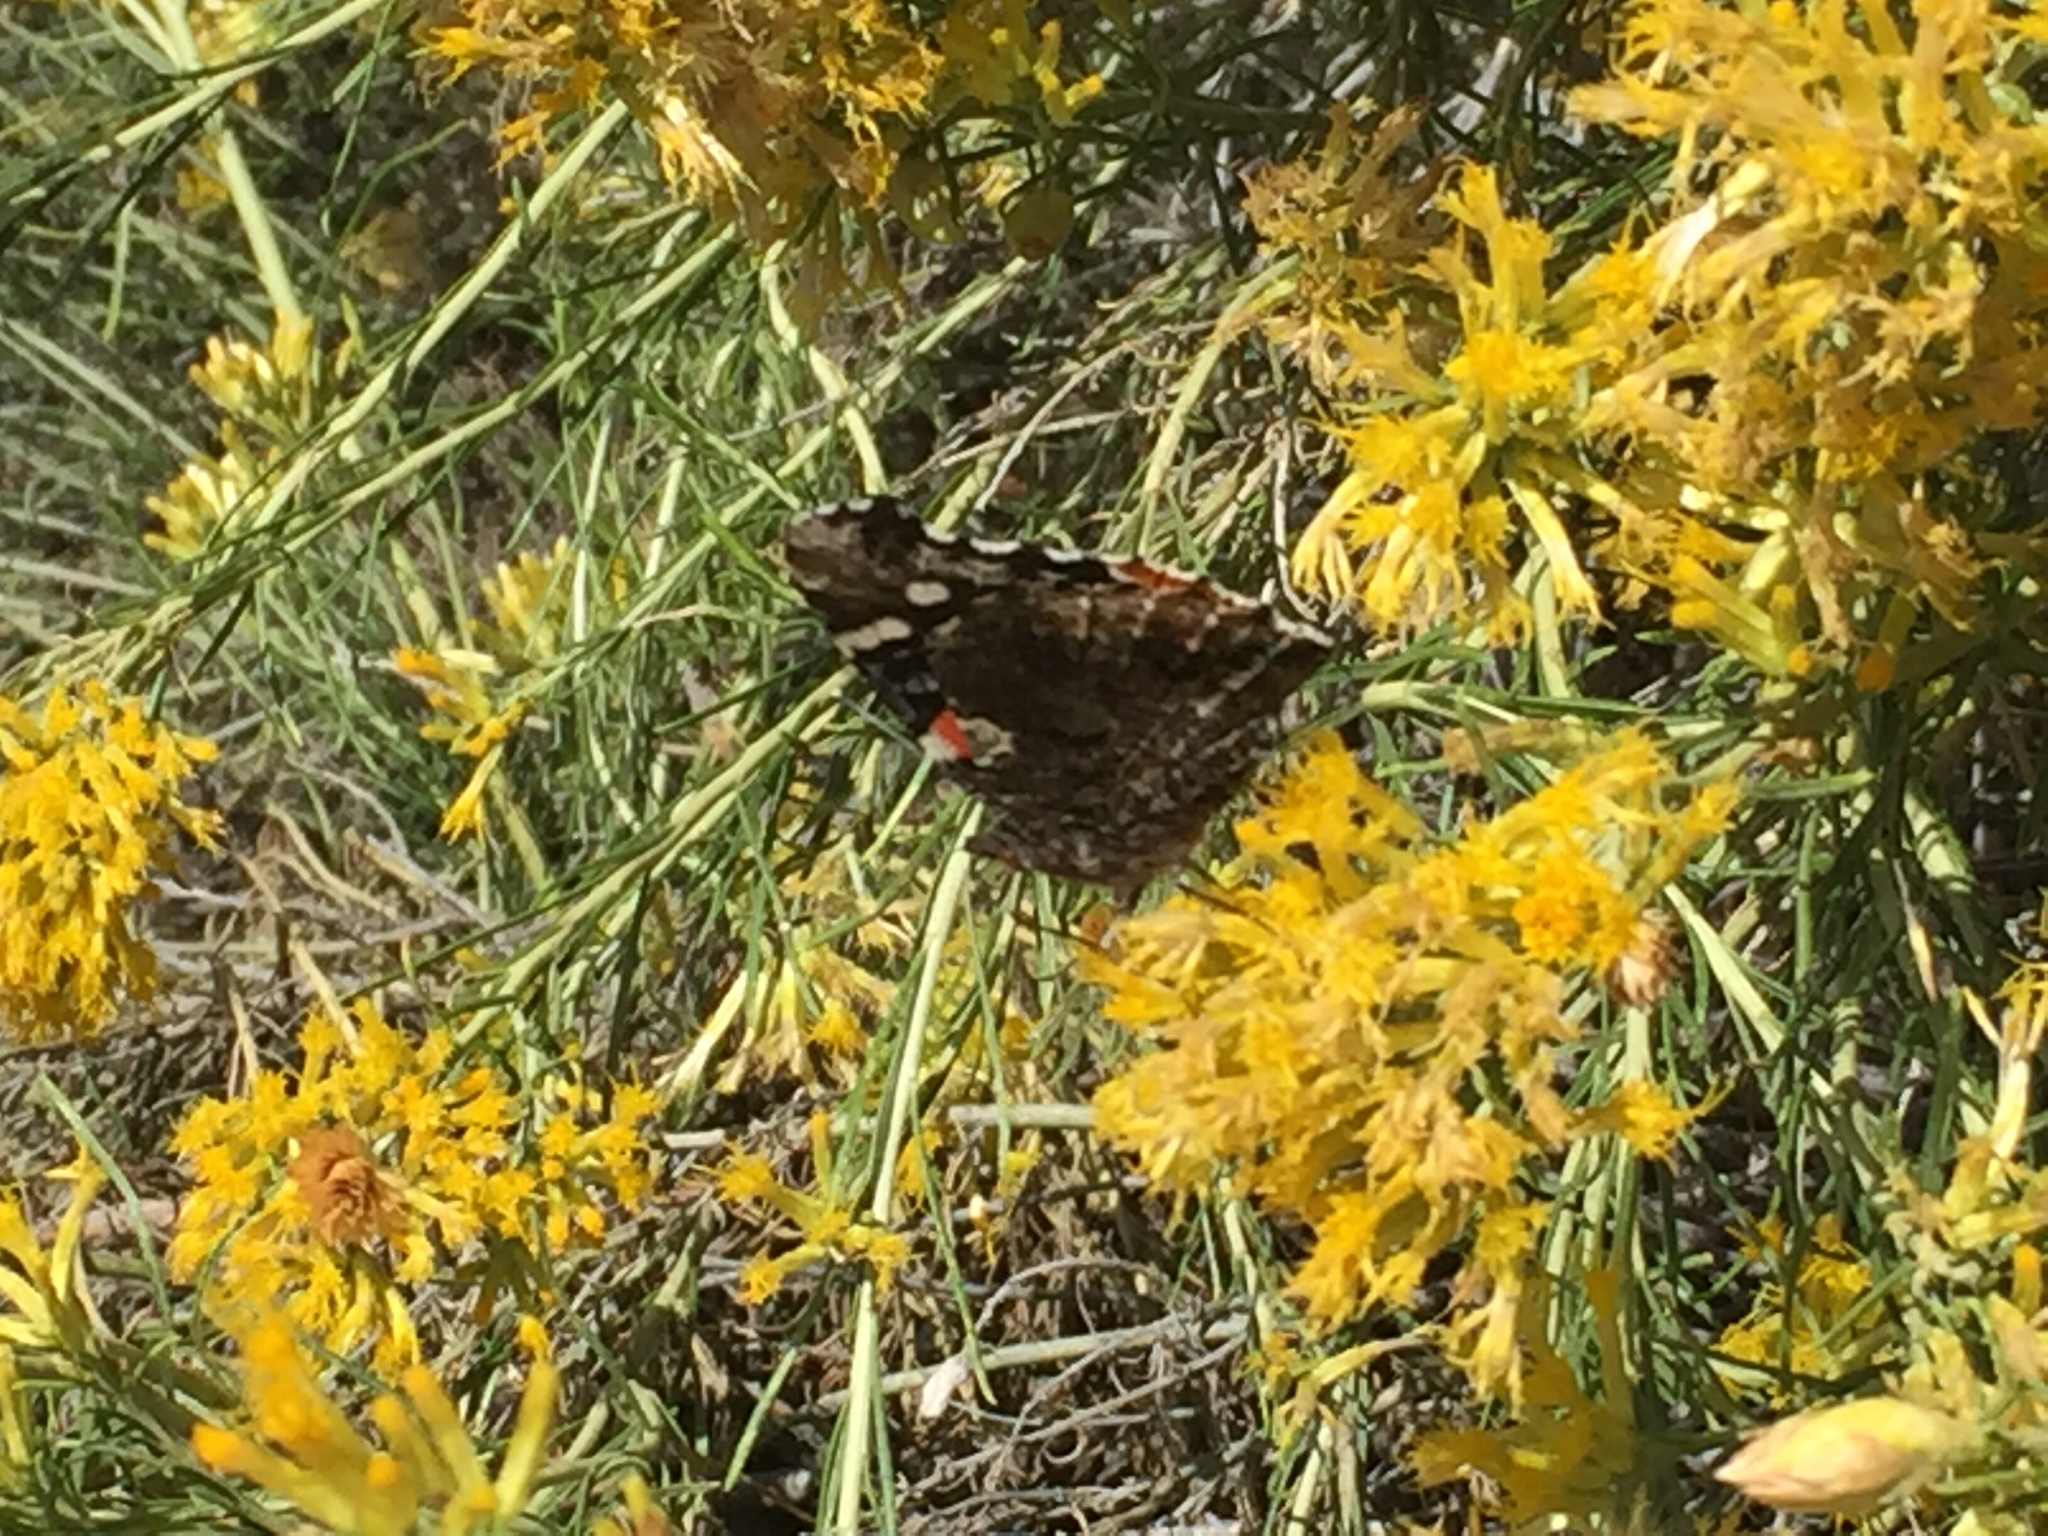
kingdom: Animalia
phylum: Arthropoda
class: Insecta
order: Lepidoptera
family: Nymphalidae
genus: Vanessa
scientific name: Vanessa atalanta
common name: Red admiral
